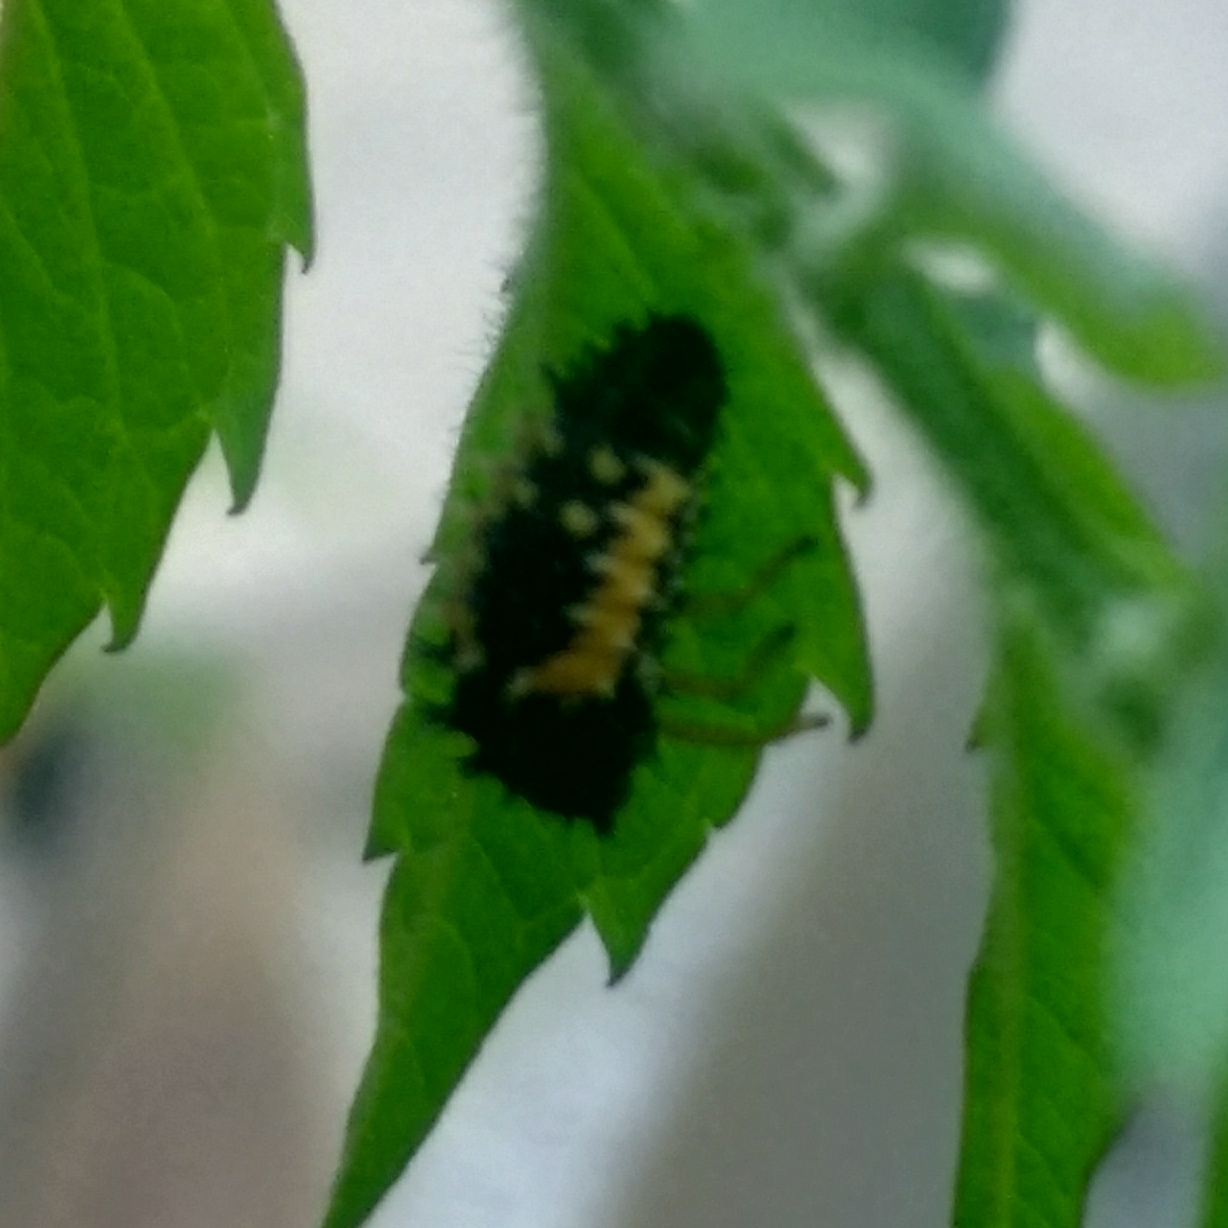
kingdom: Animalia
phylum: Arthropoda
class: Insecta
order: Coleoptera
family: Coccinellidae
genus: Harmonia
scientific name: Harmonia axyridis
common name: Harlequin ladybird
